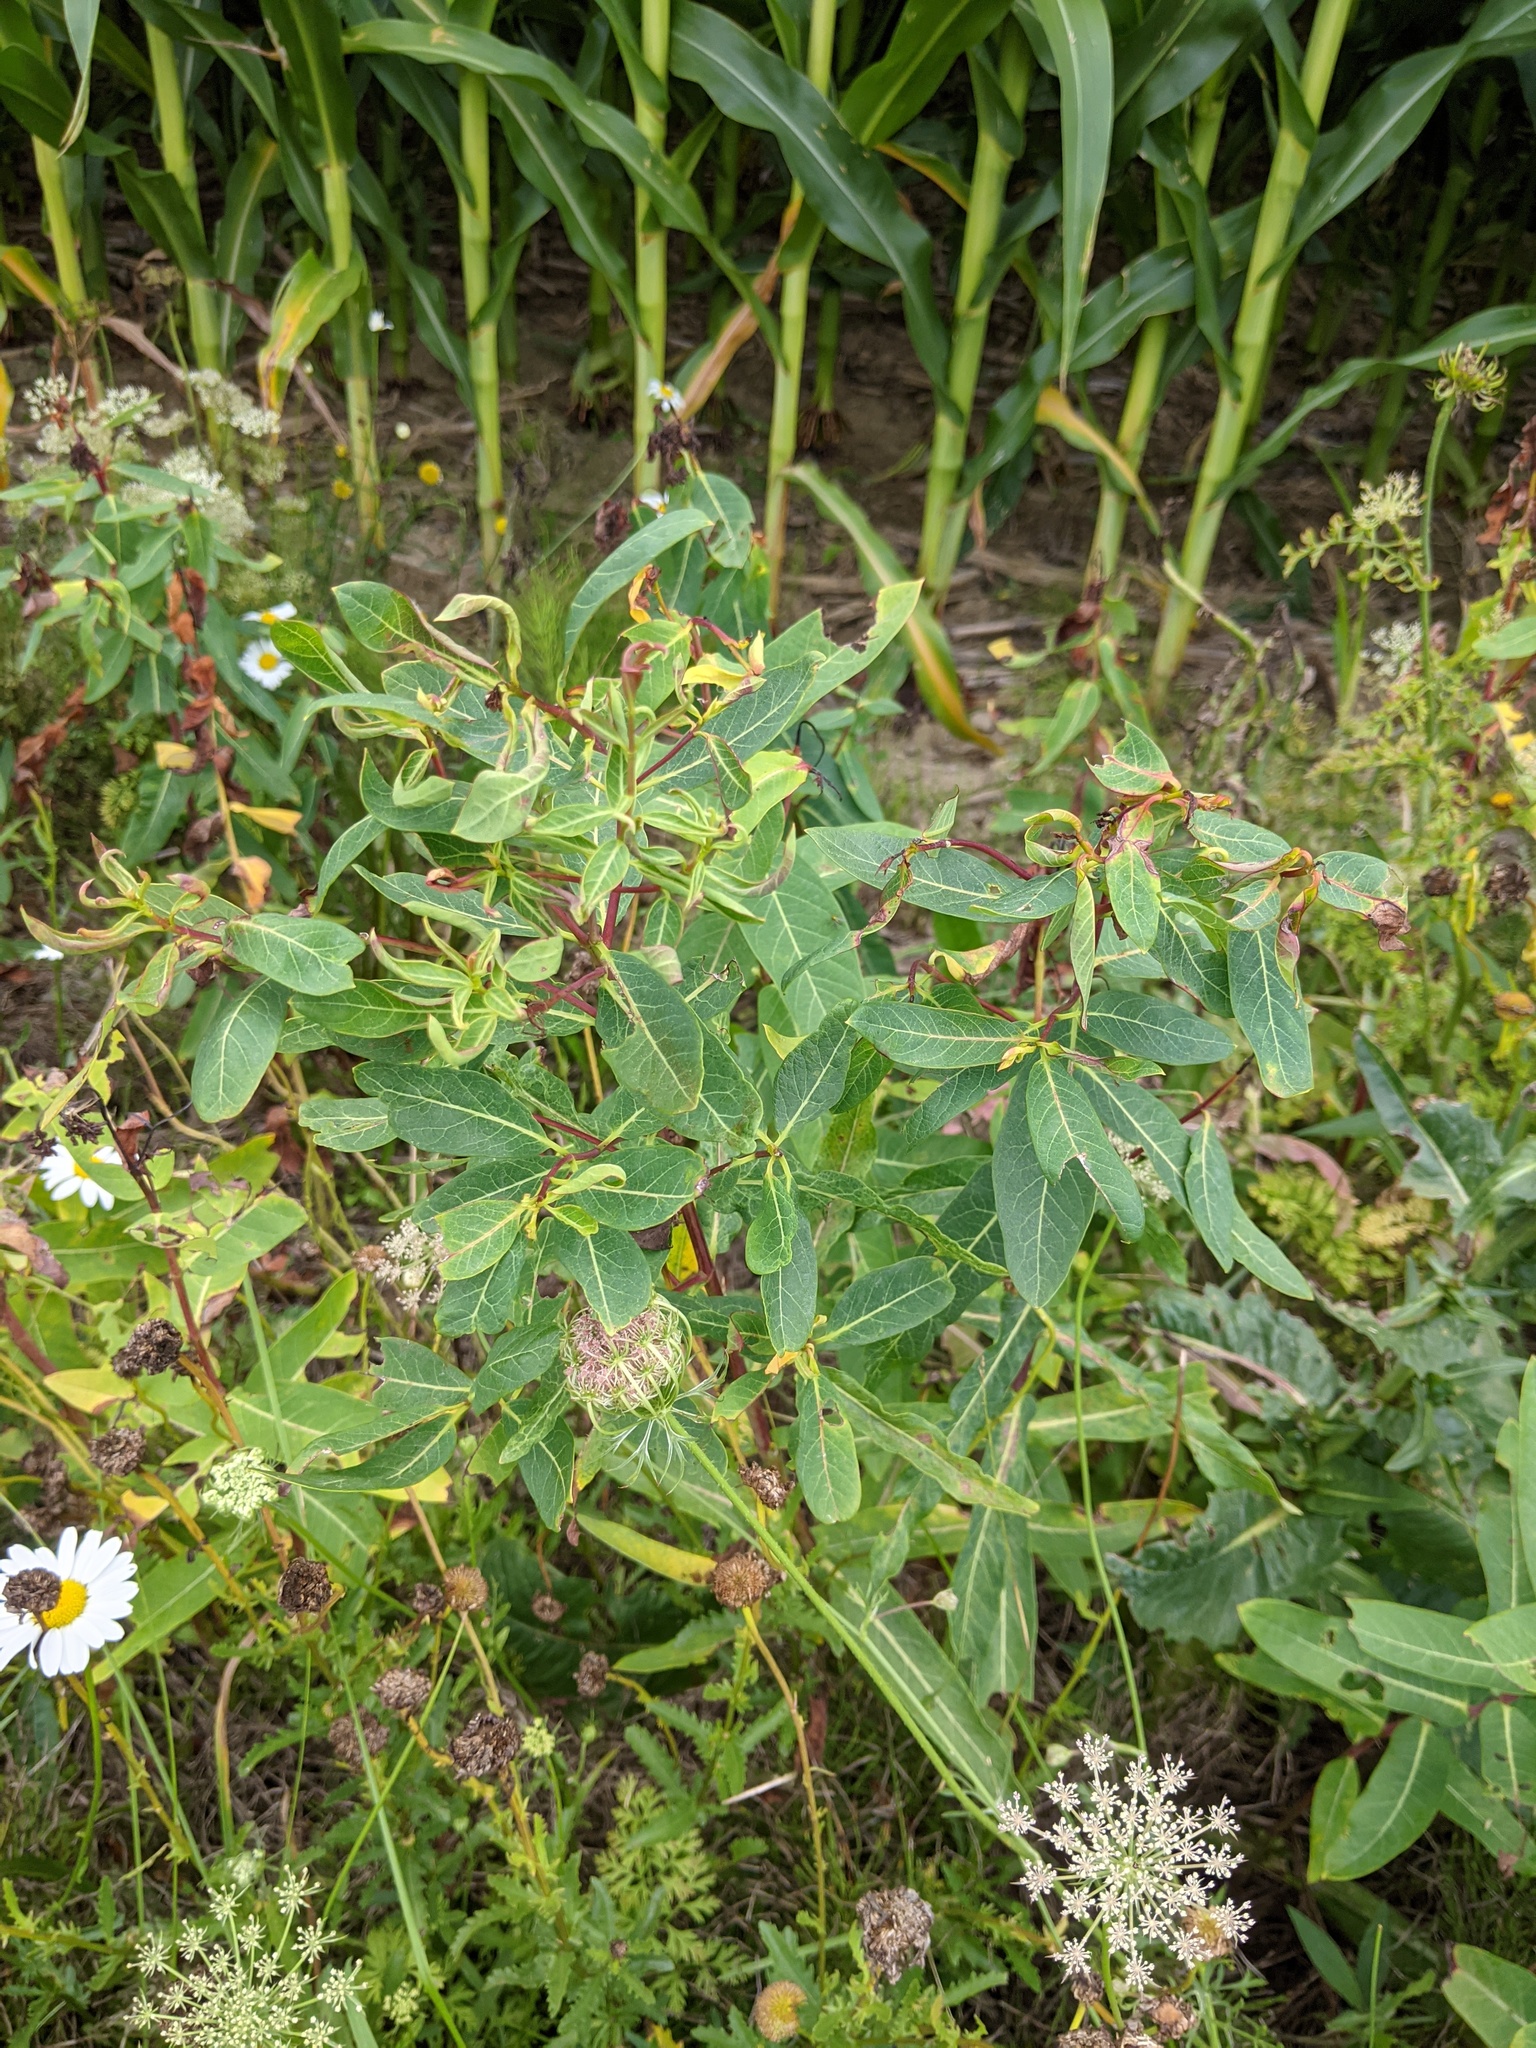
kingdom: Plantae
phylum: Tracheophyta
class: Magnoliopsida
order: Gentianales
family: Apocynaceae
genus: Apocynum
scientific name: Apocynum cannabinum
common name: Hemp dogbane
